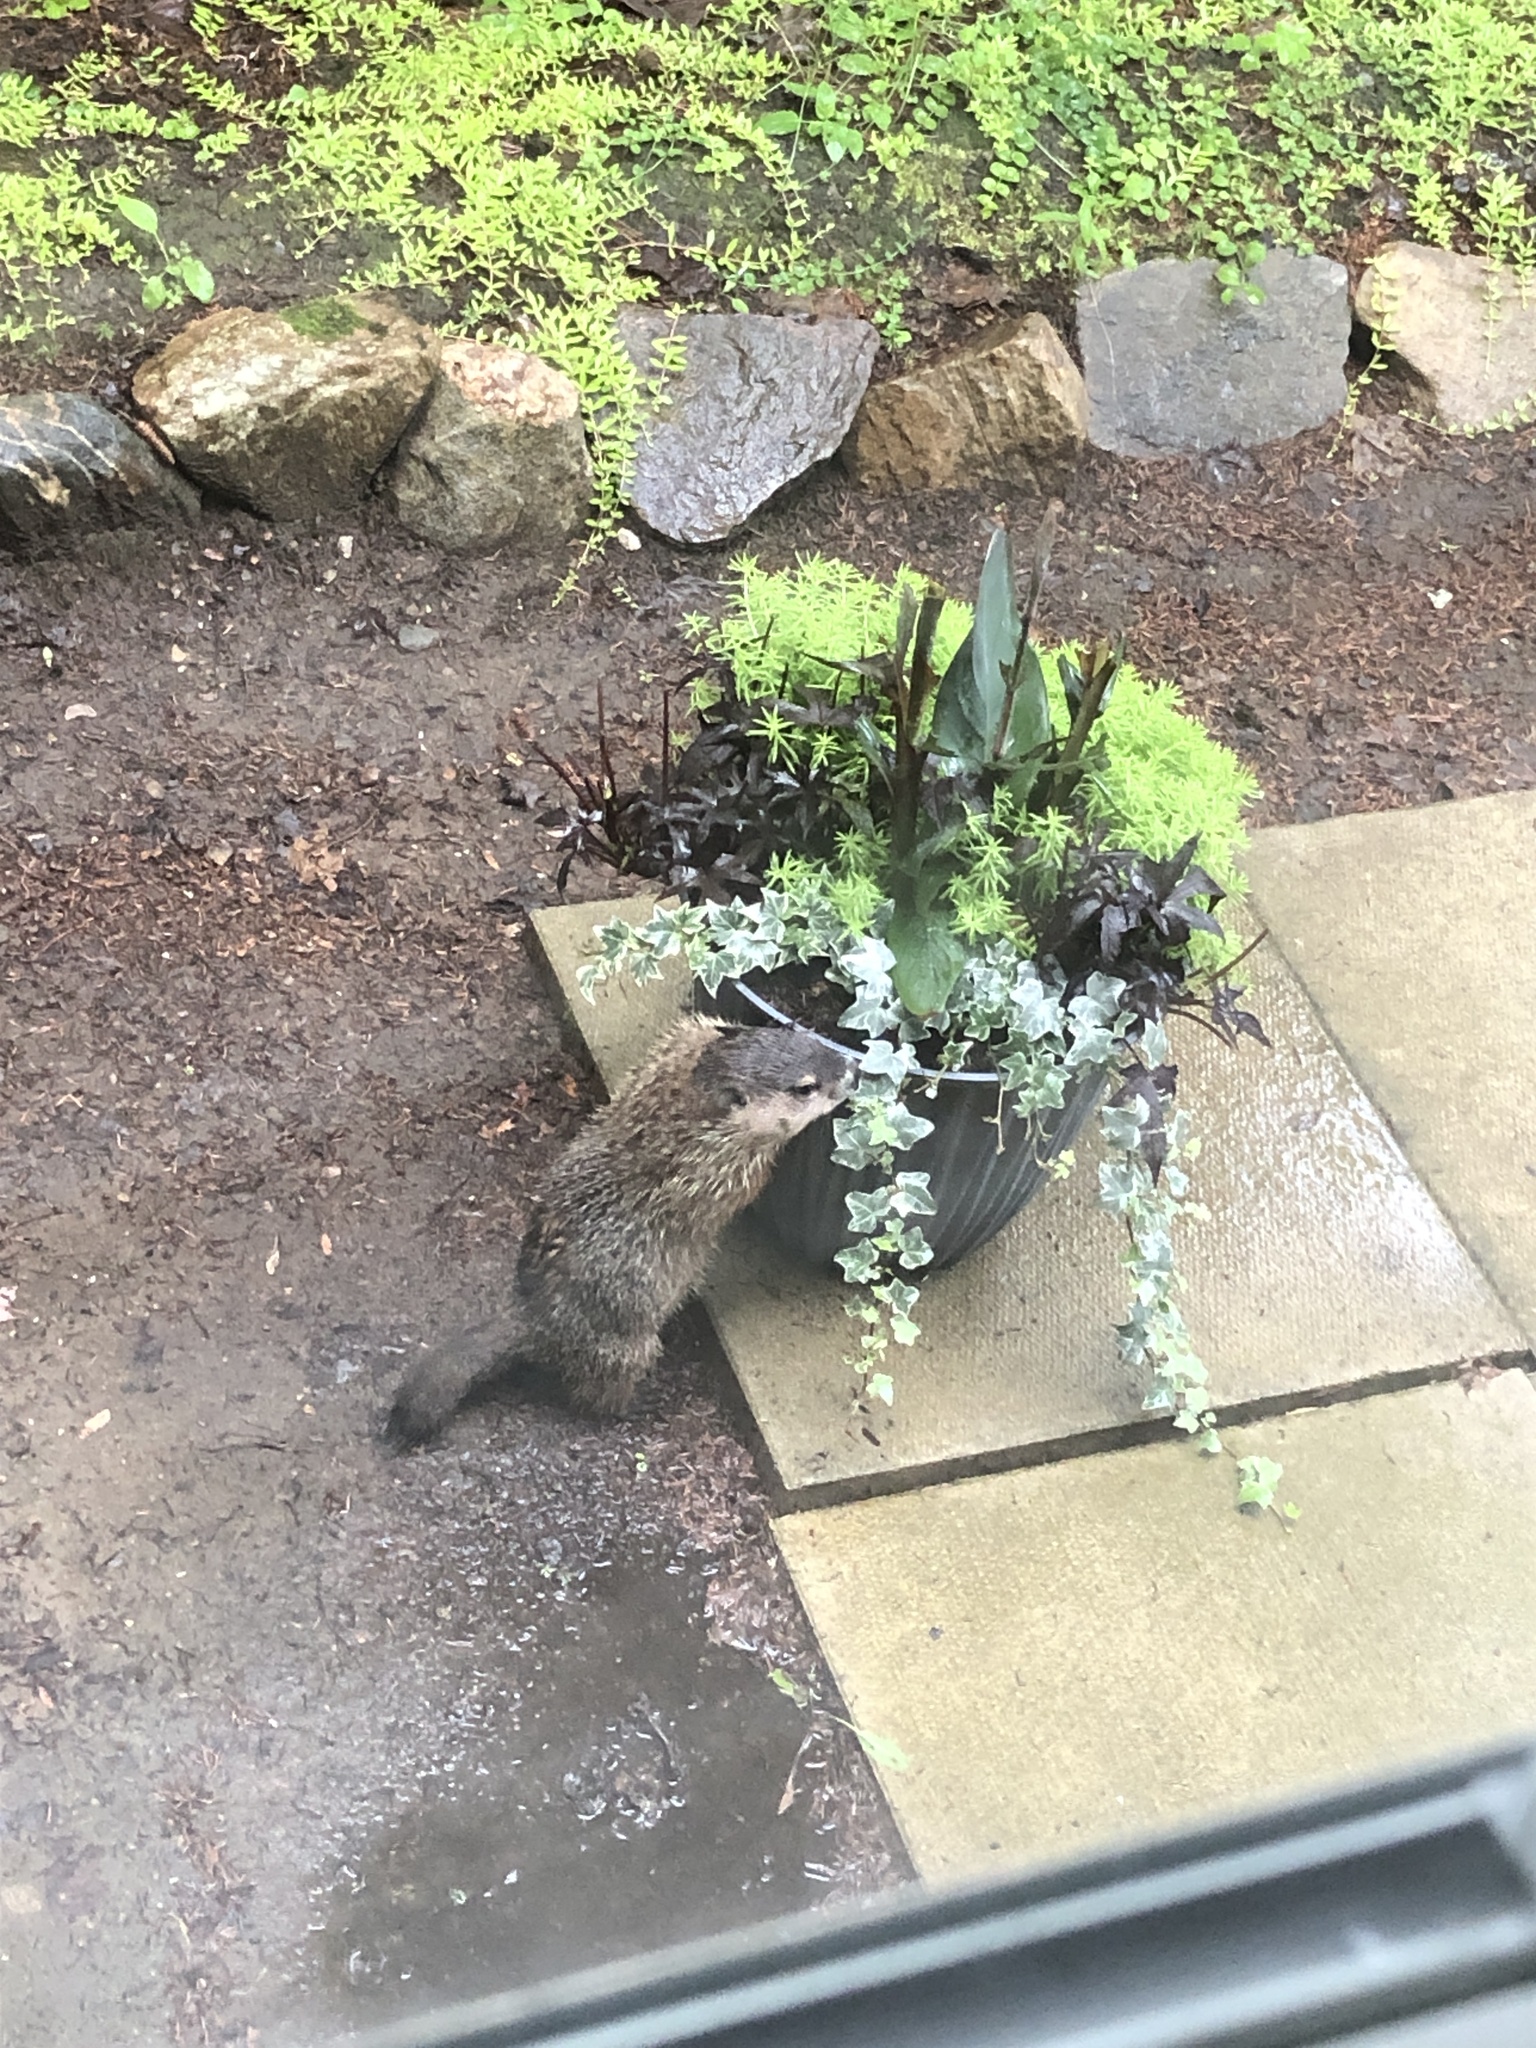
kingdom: Animalia
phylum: Chordata
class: Mammalia
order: Rodentia
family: Sciuridae
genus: Marmota
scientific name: Marmota monax
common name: Groundhog
